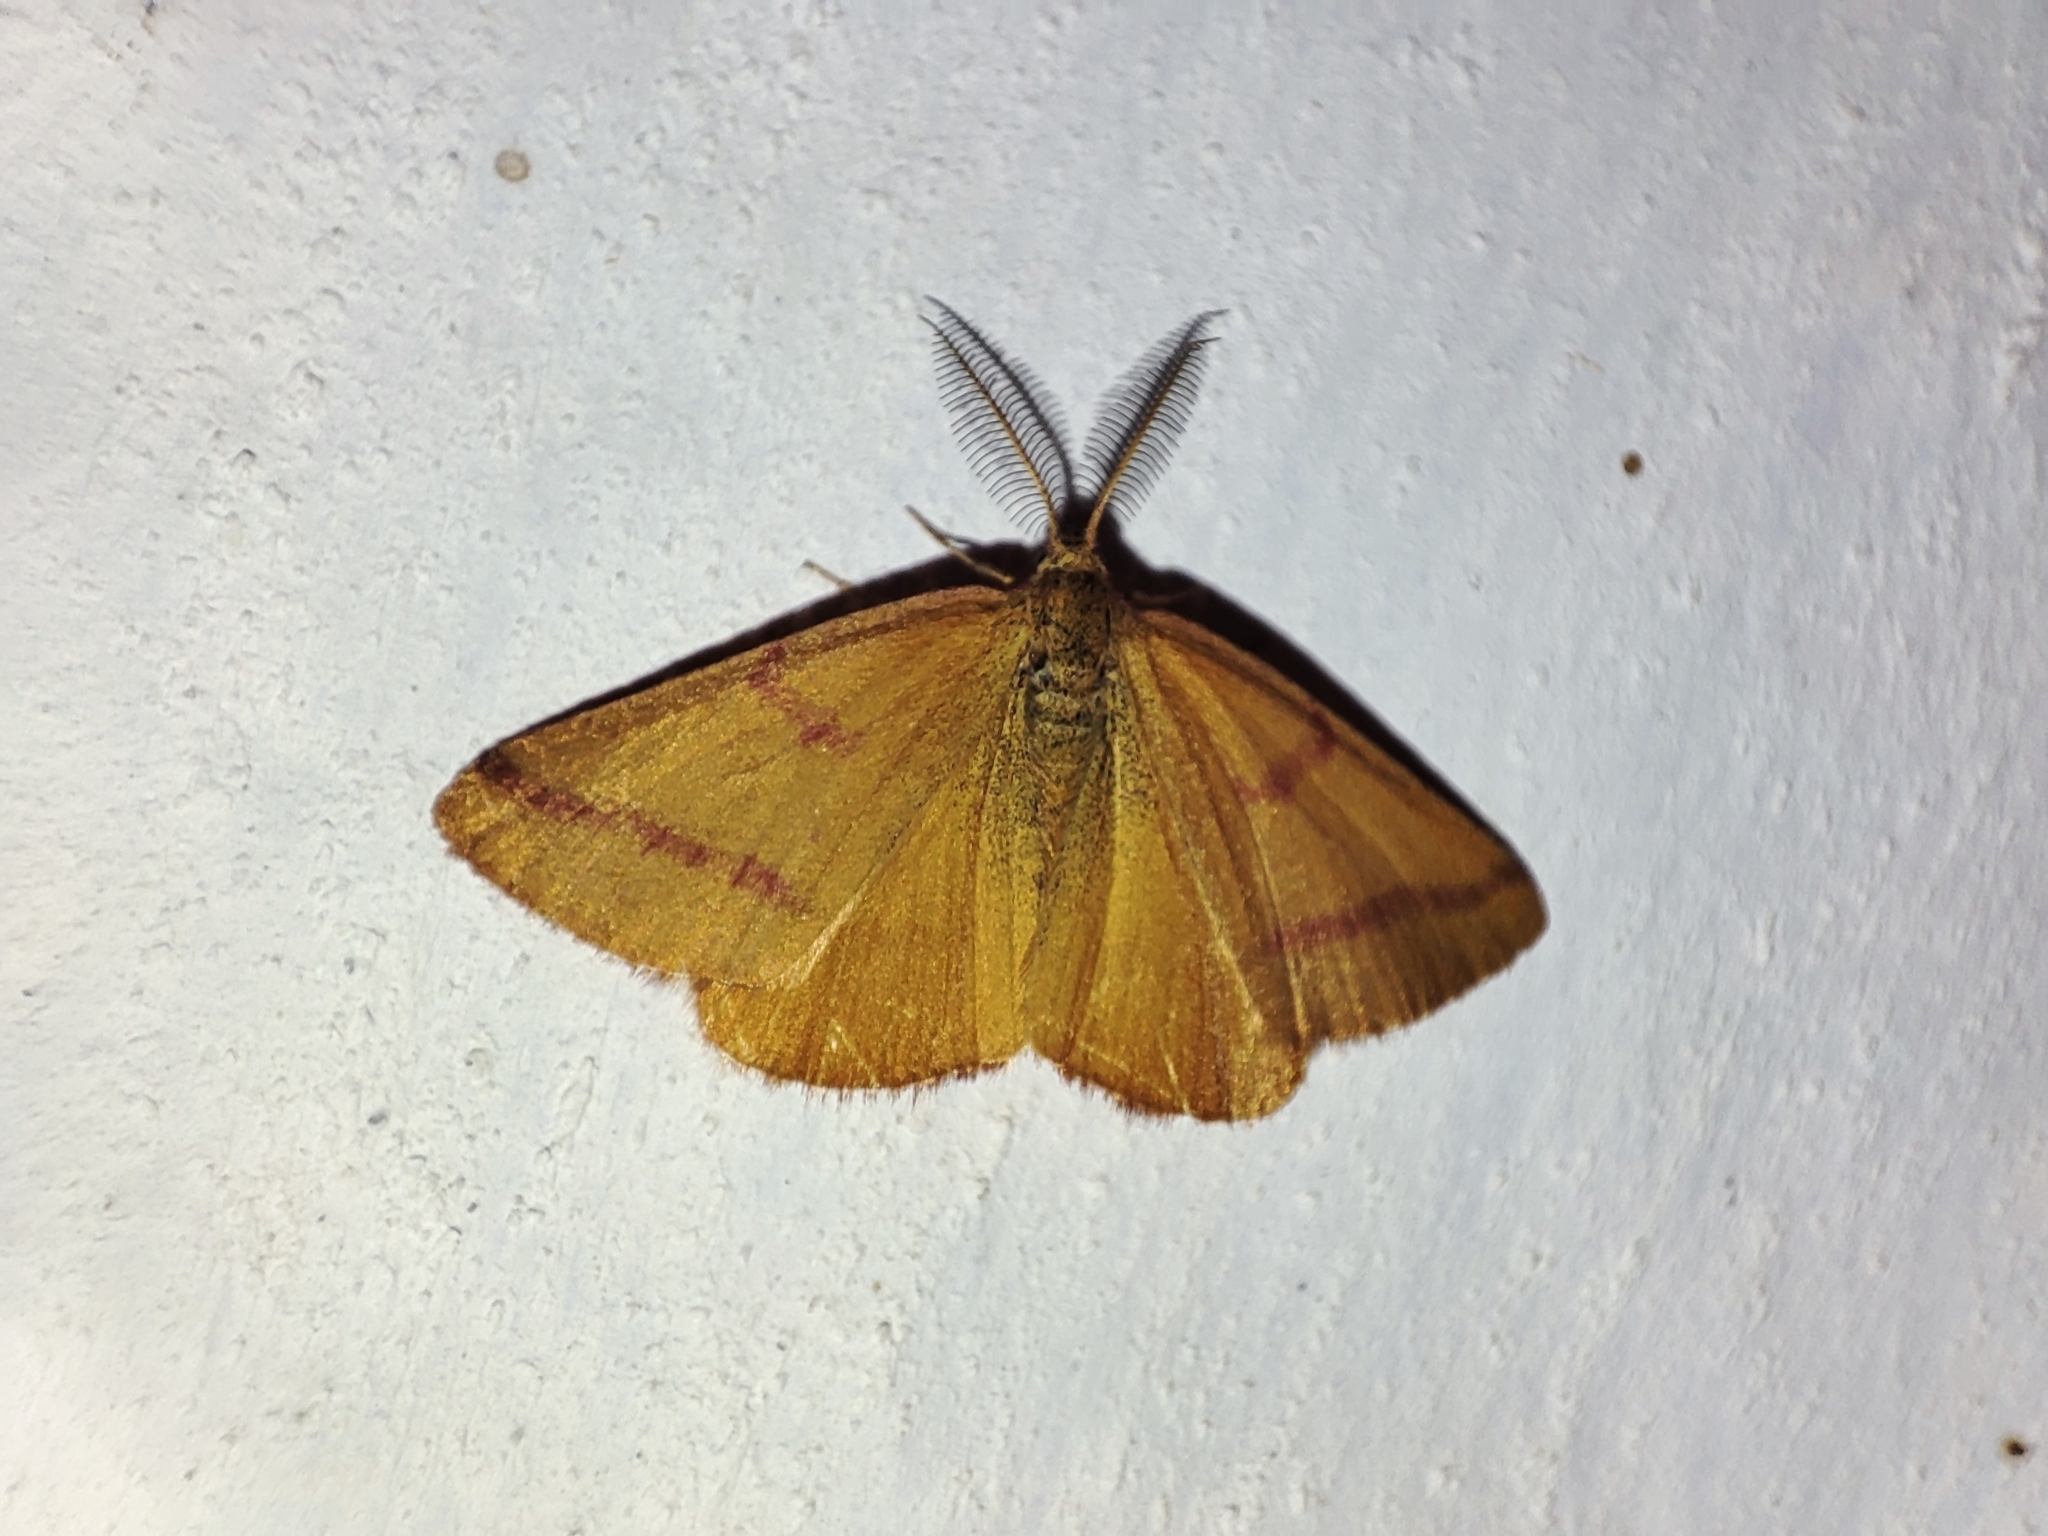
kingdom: Animalia
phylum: Arthropoda
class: Insecta
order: Lepidoptera
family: Geometridae
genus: Lythria
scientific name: Lythria purpuraria
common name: Purple-barred yellow
